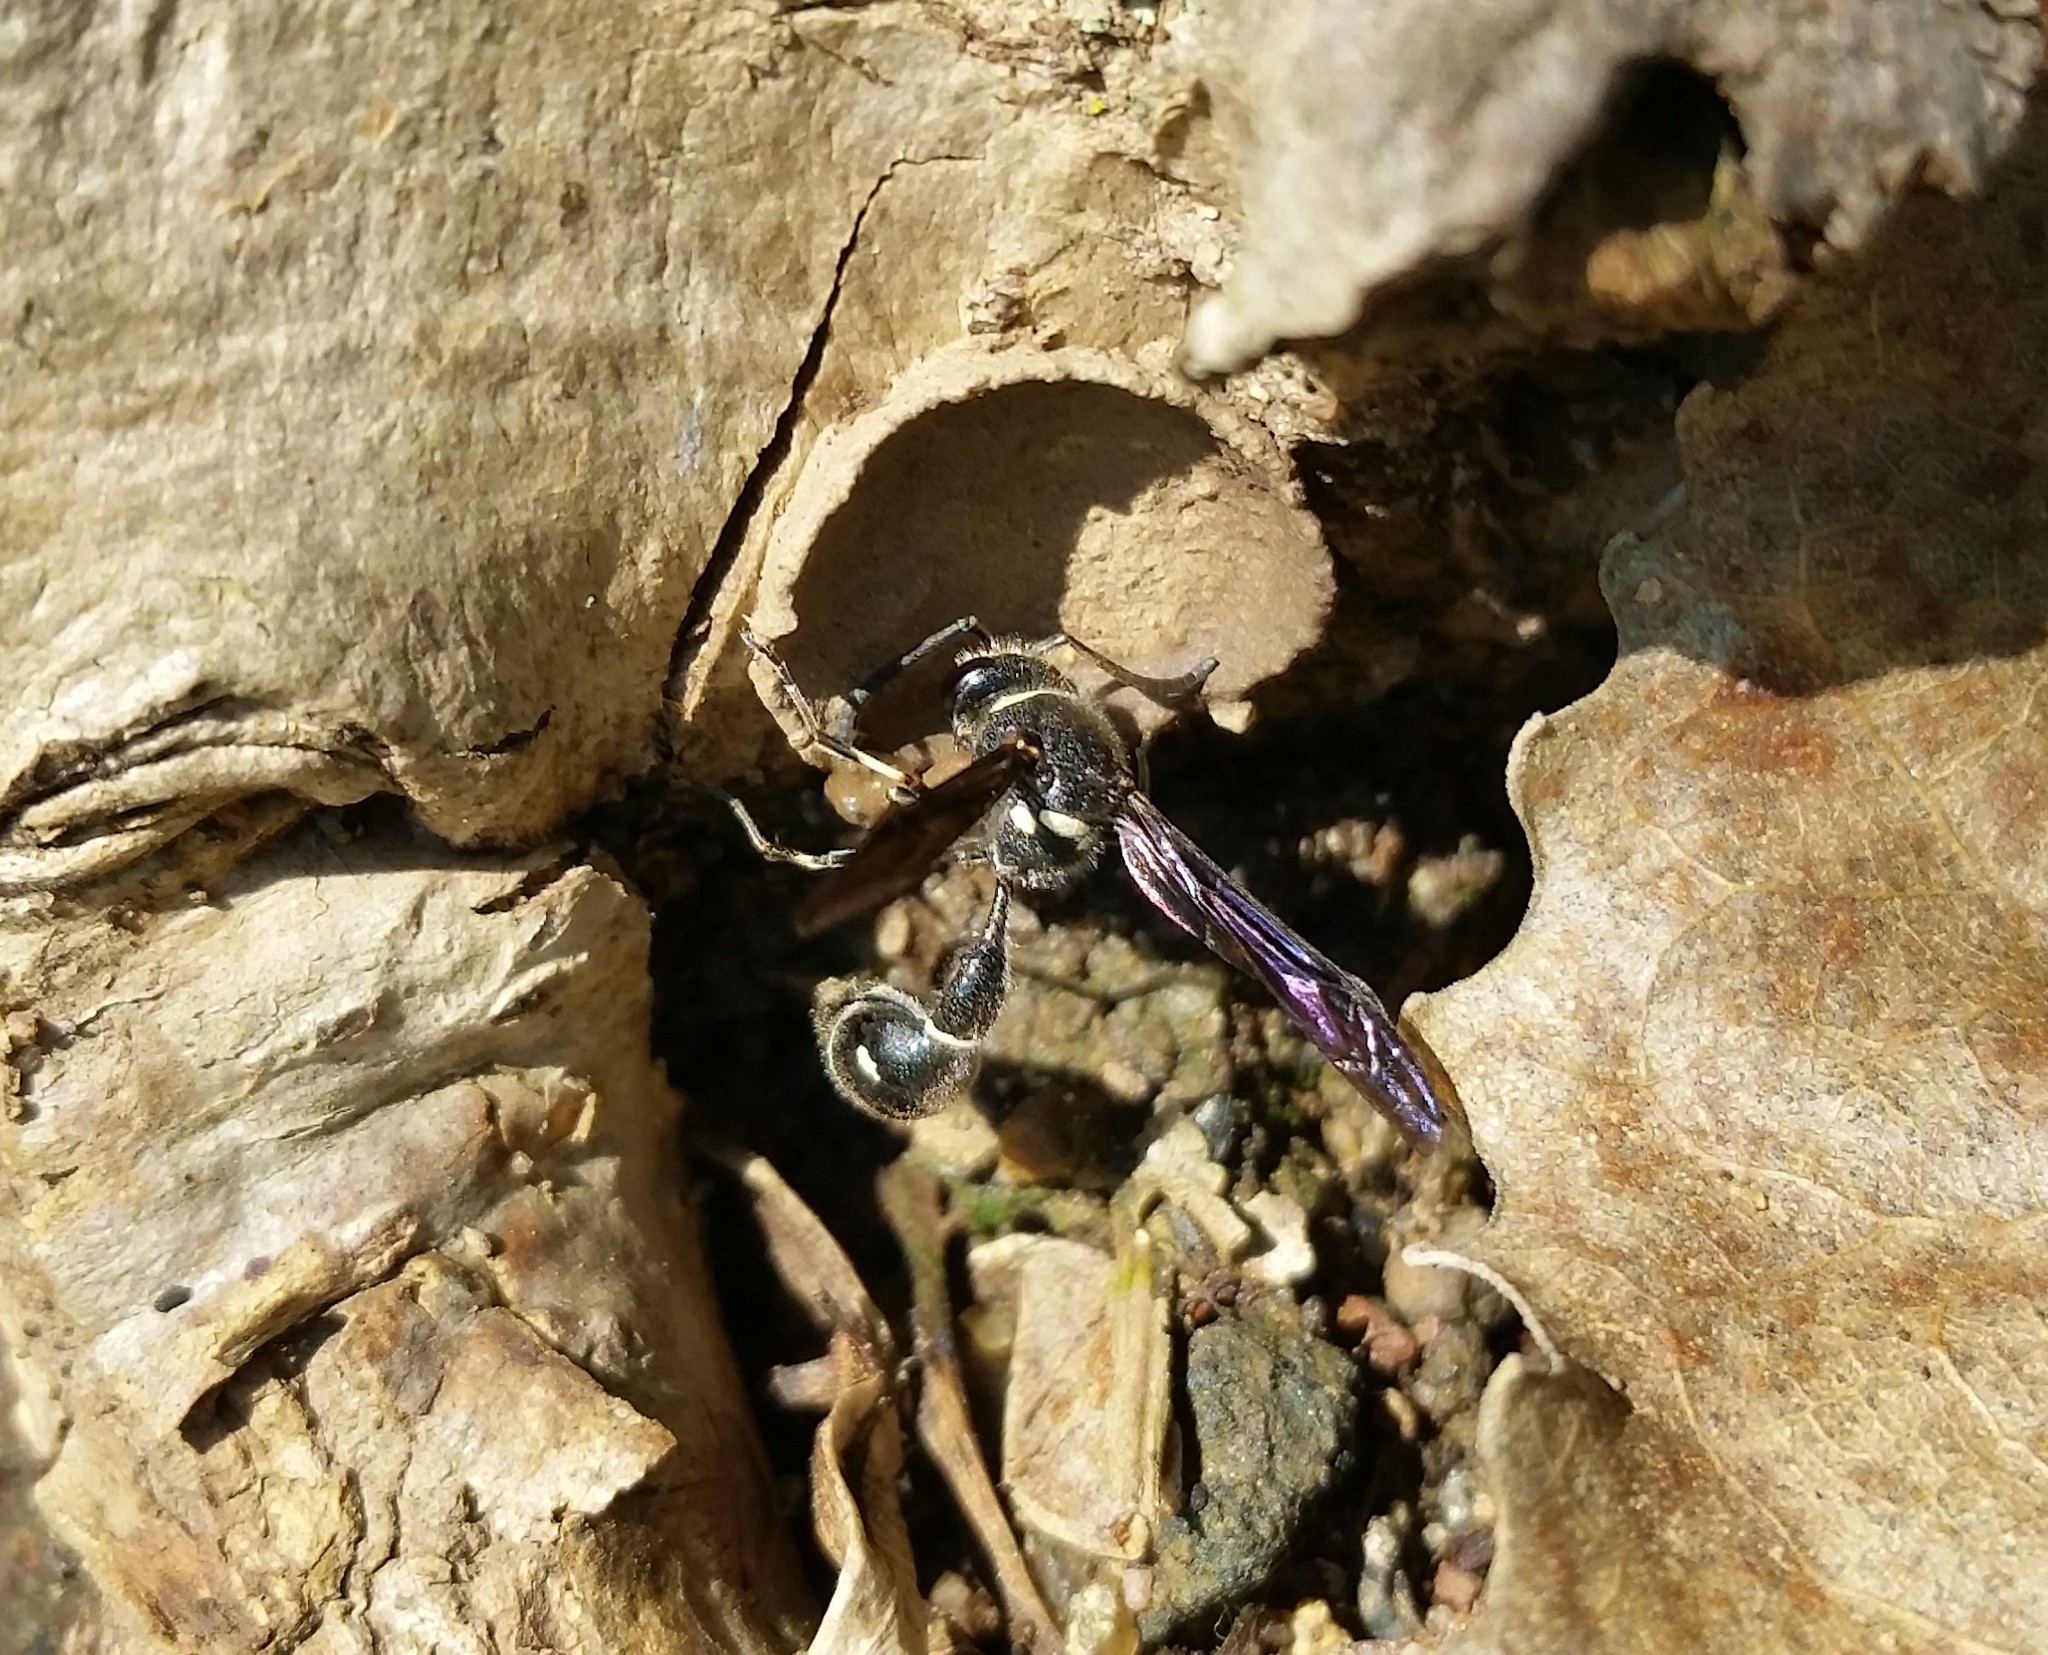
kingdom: Animalia
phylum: Arthropoda
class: Insecta
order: Hymenoptera
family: Vespidae
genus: Eumenes
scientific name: Eumenes fraternus
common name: Fraternal potter wasp
